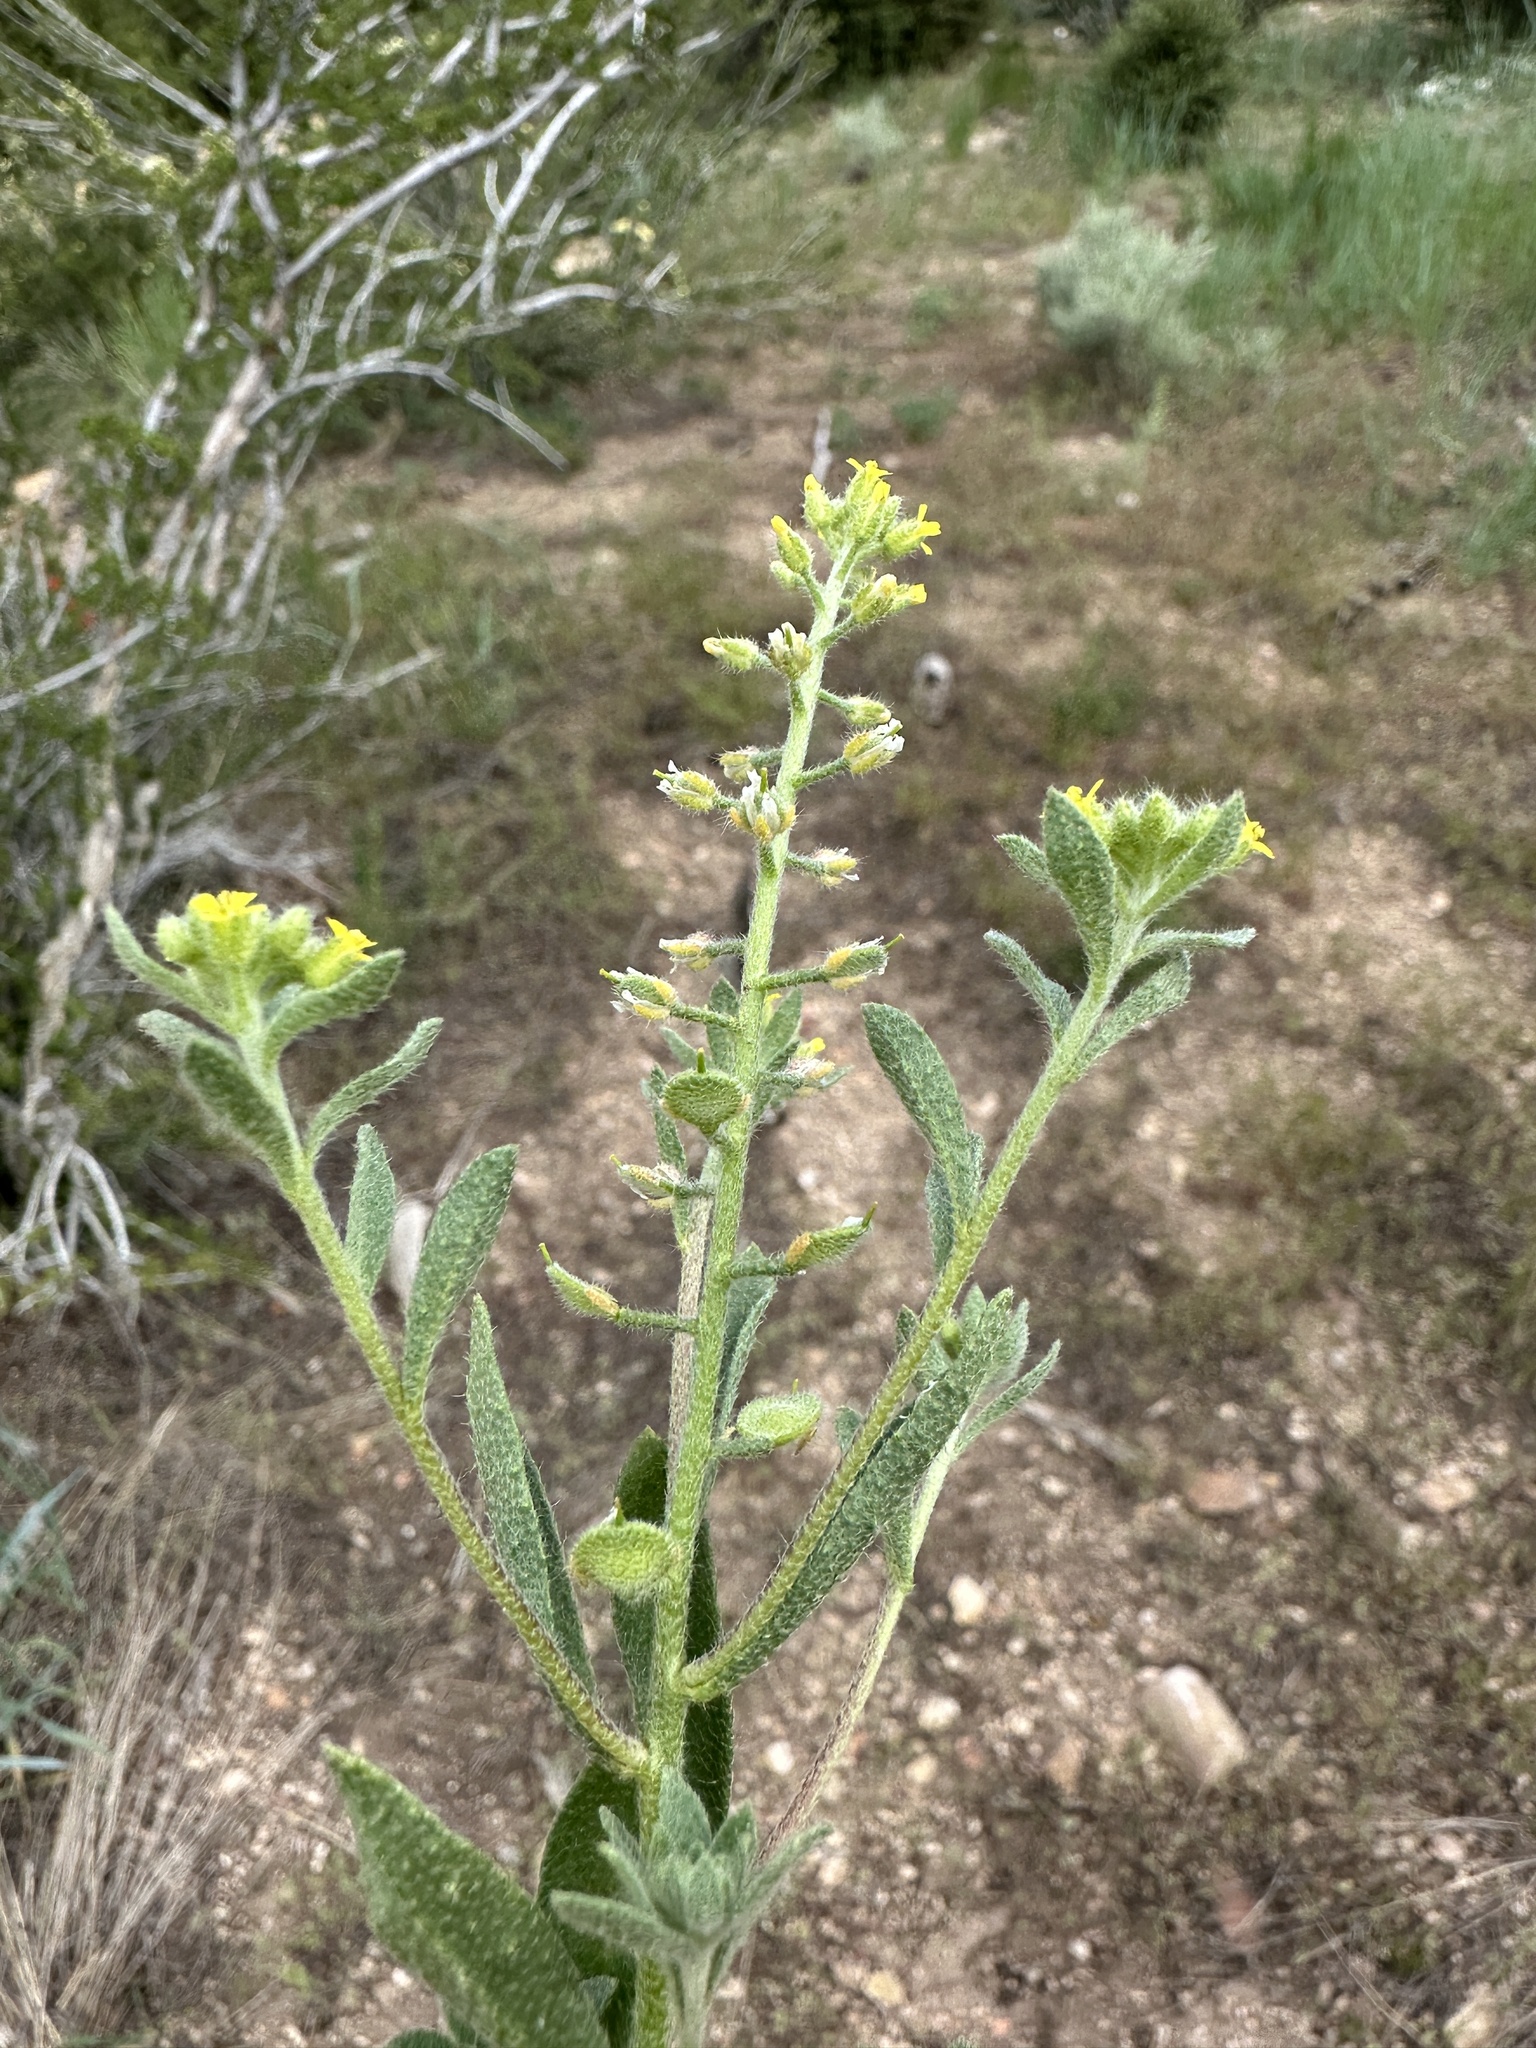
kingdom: Plantae
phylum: Tracheophyta
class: Magnoliopsida
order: Brassicales
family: Brassicaceae
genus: Alyssum
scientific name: Alyssum simplex
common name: Alyssum
